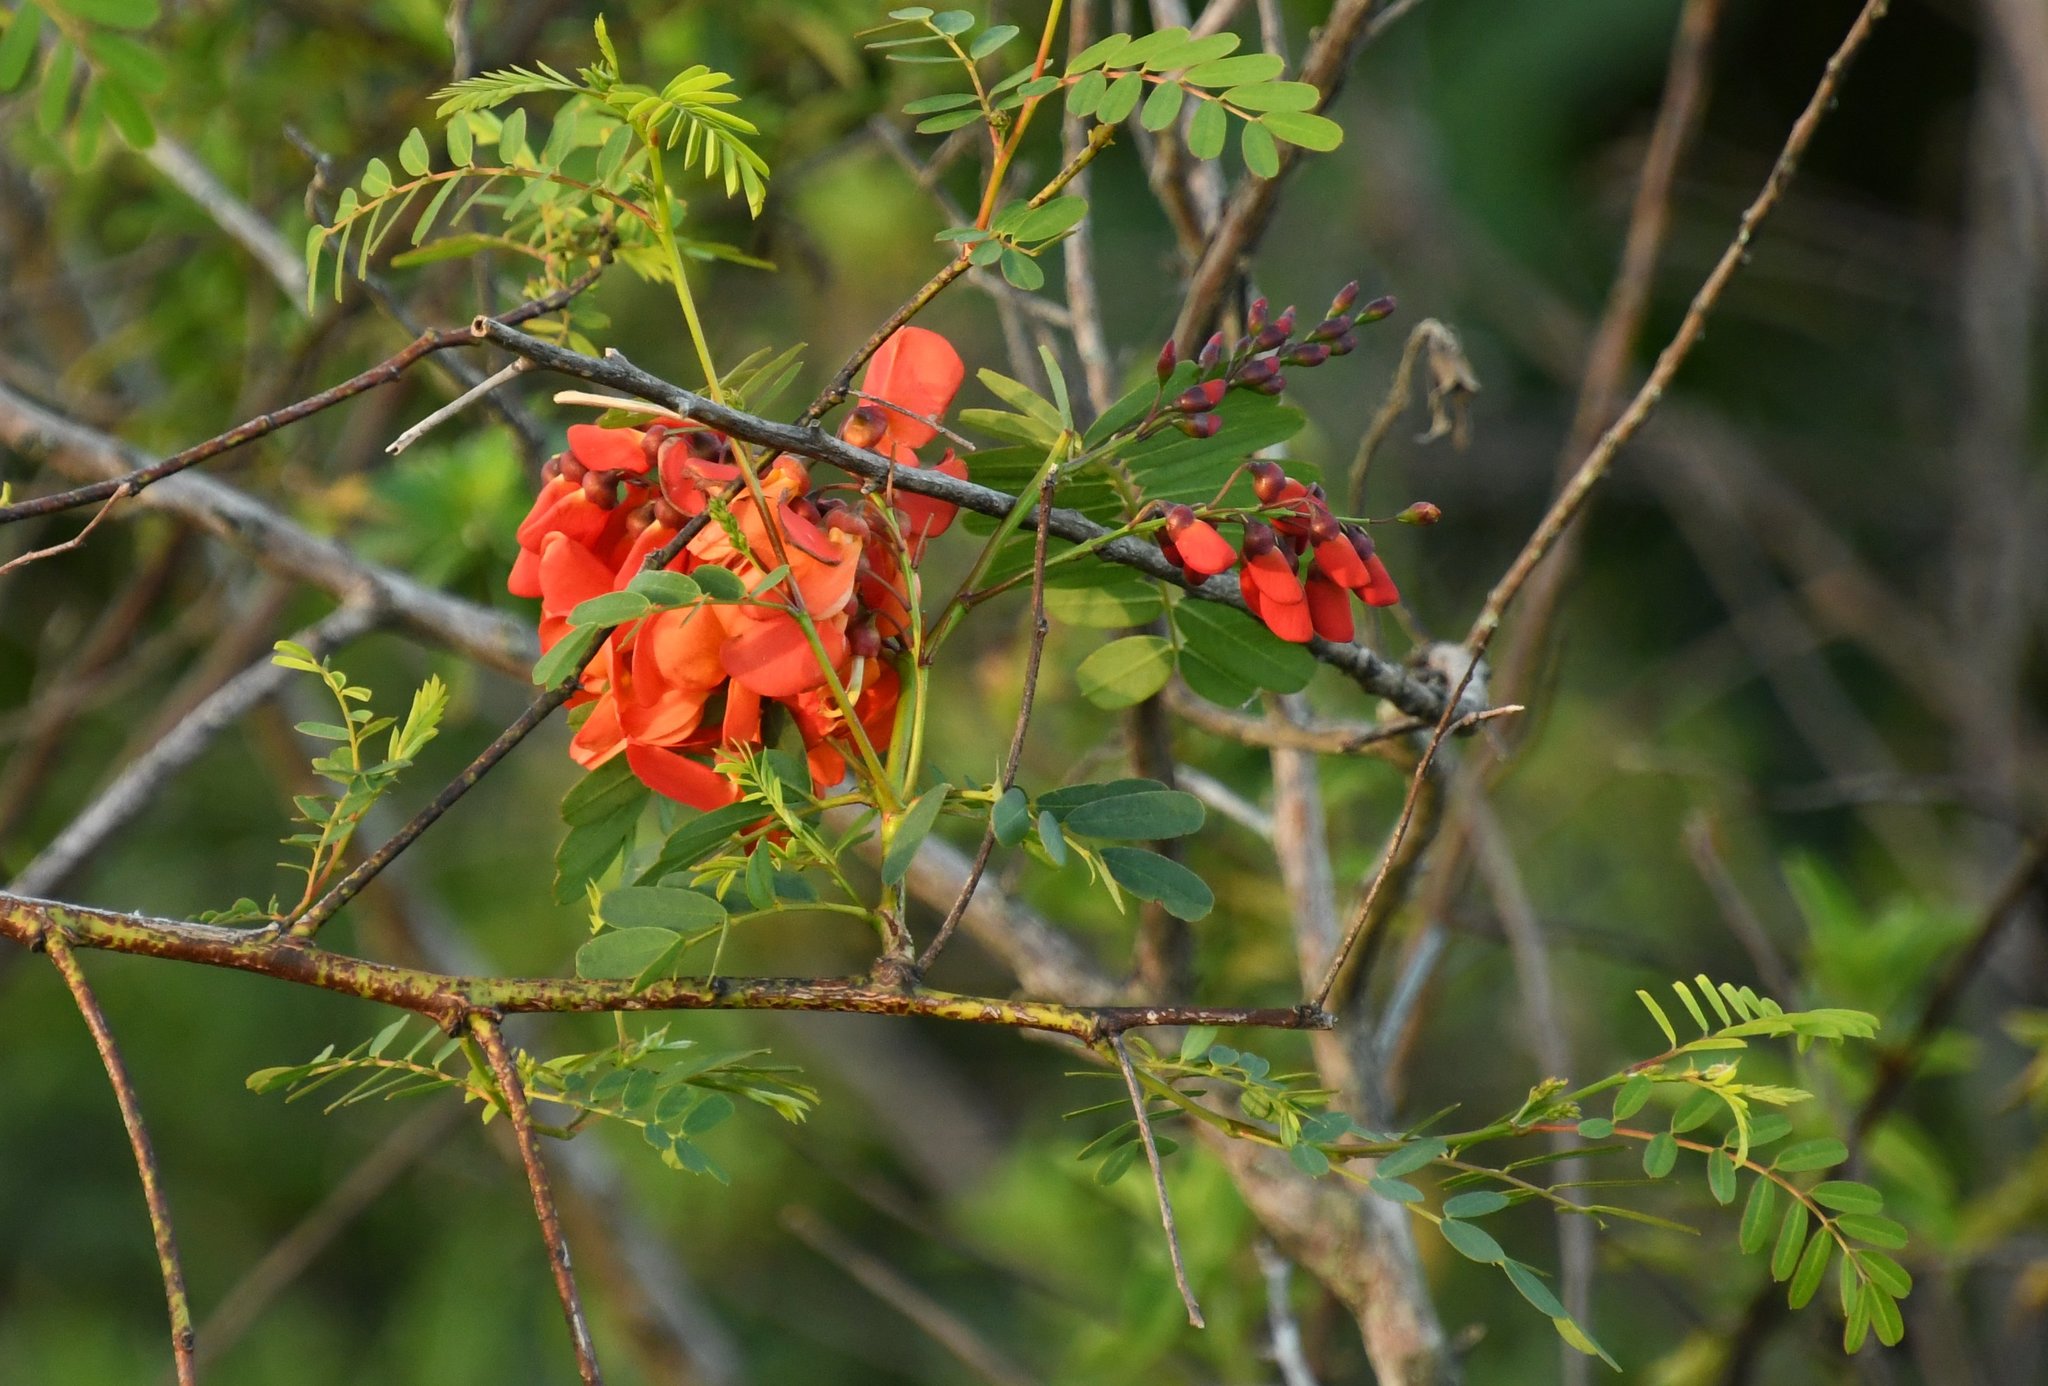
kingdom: Plantae
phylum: Tracheophyta
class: Magnoliopsida
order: Fabales
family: Fabaceae
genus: Sesbania
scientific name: Sesbania punicea
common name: Rattlebox
